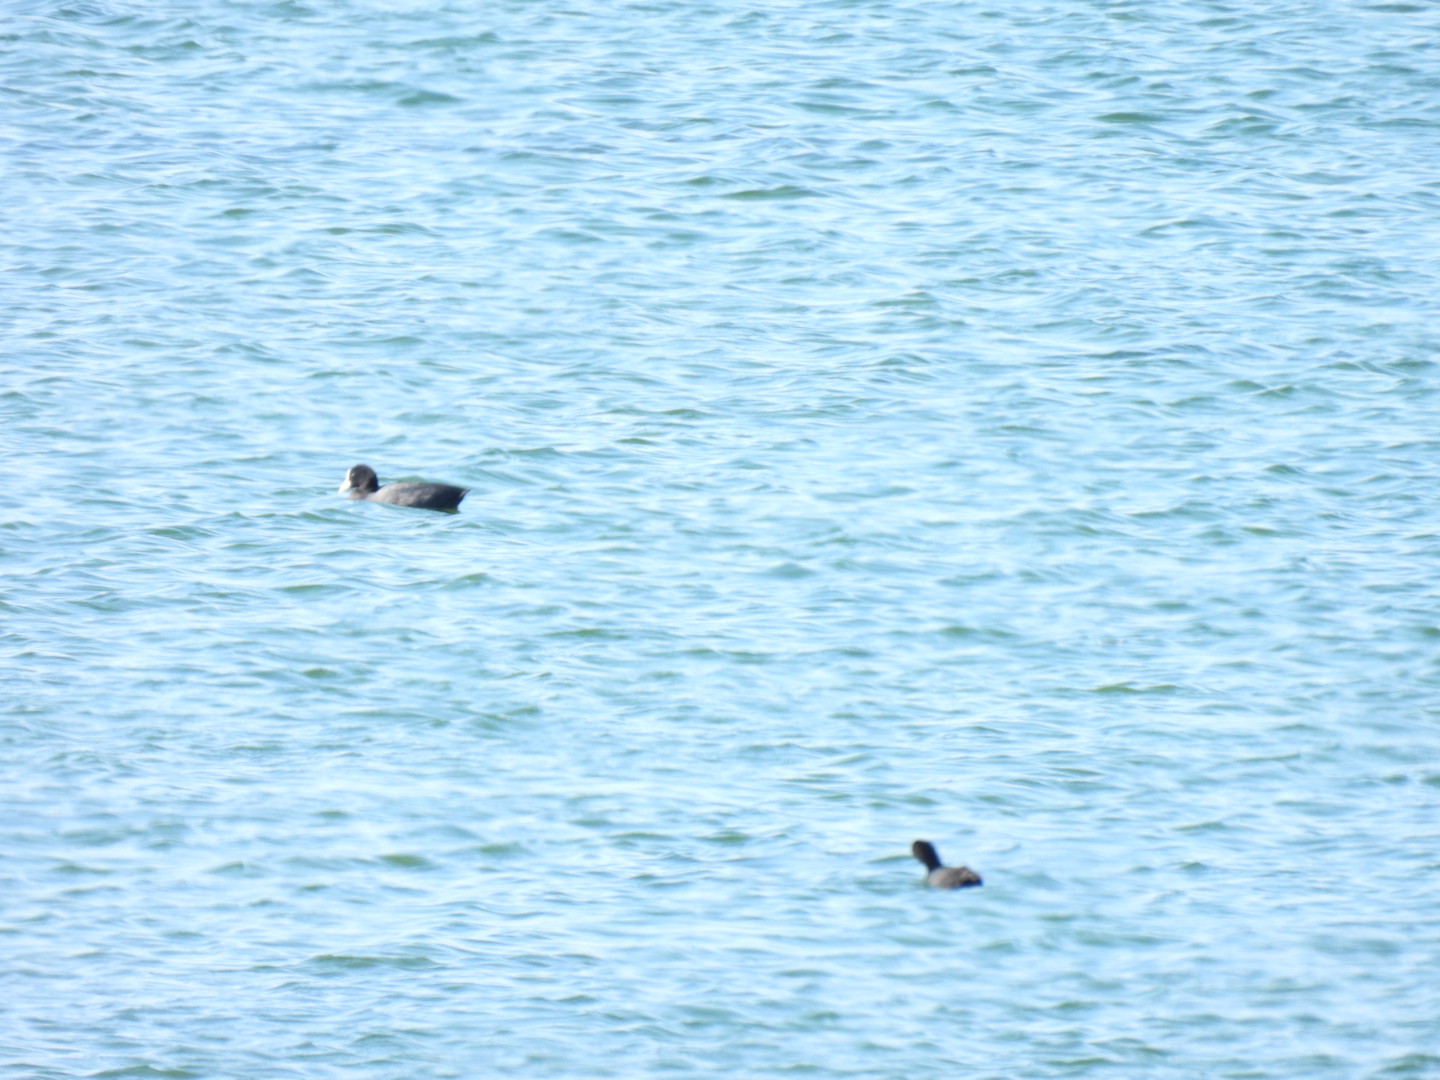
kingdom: Animalia
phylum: Chordata
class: Aves
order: Gruiformes
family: Rallidae
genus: Fulica
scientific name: Fulica atra
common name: Eurasian coot
